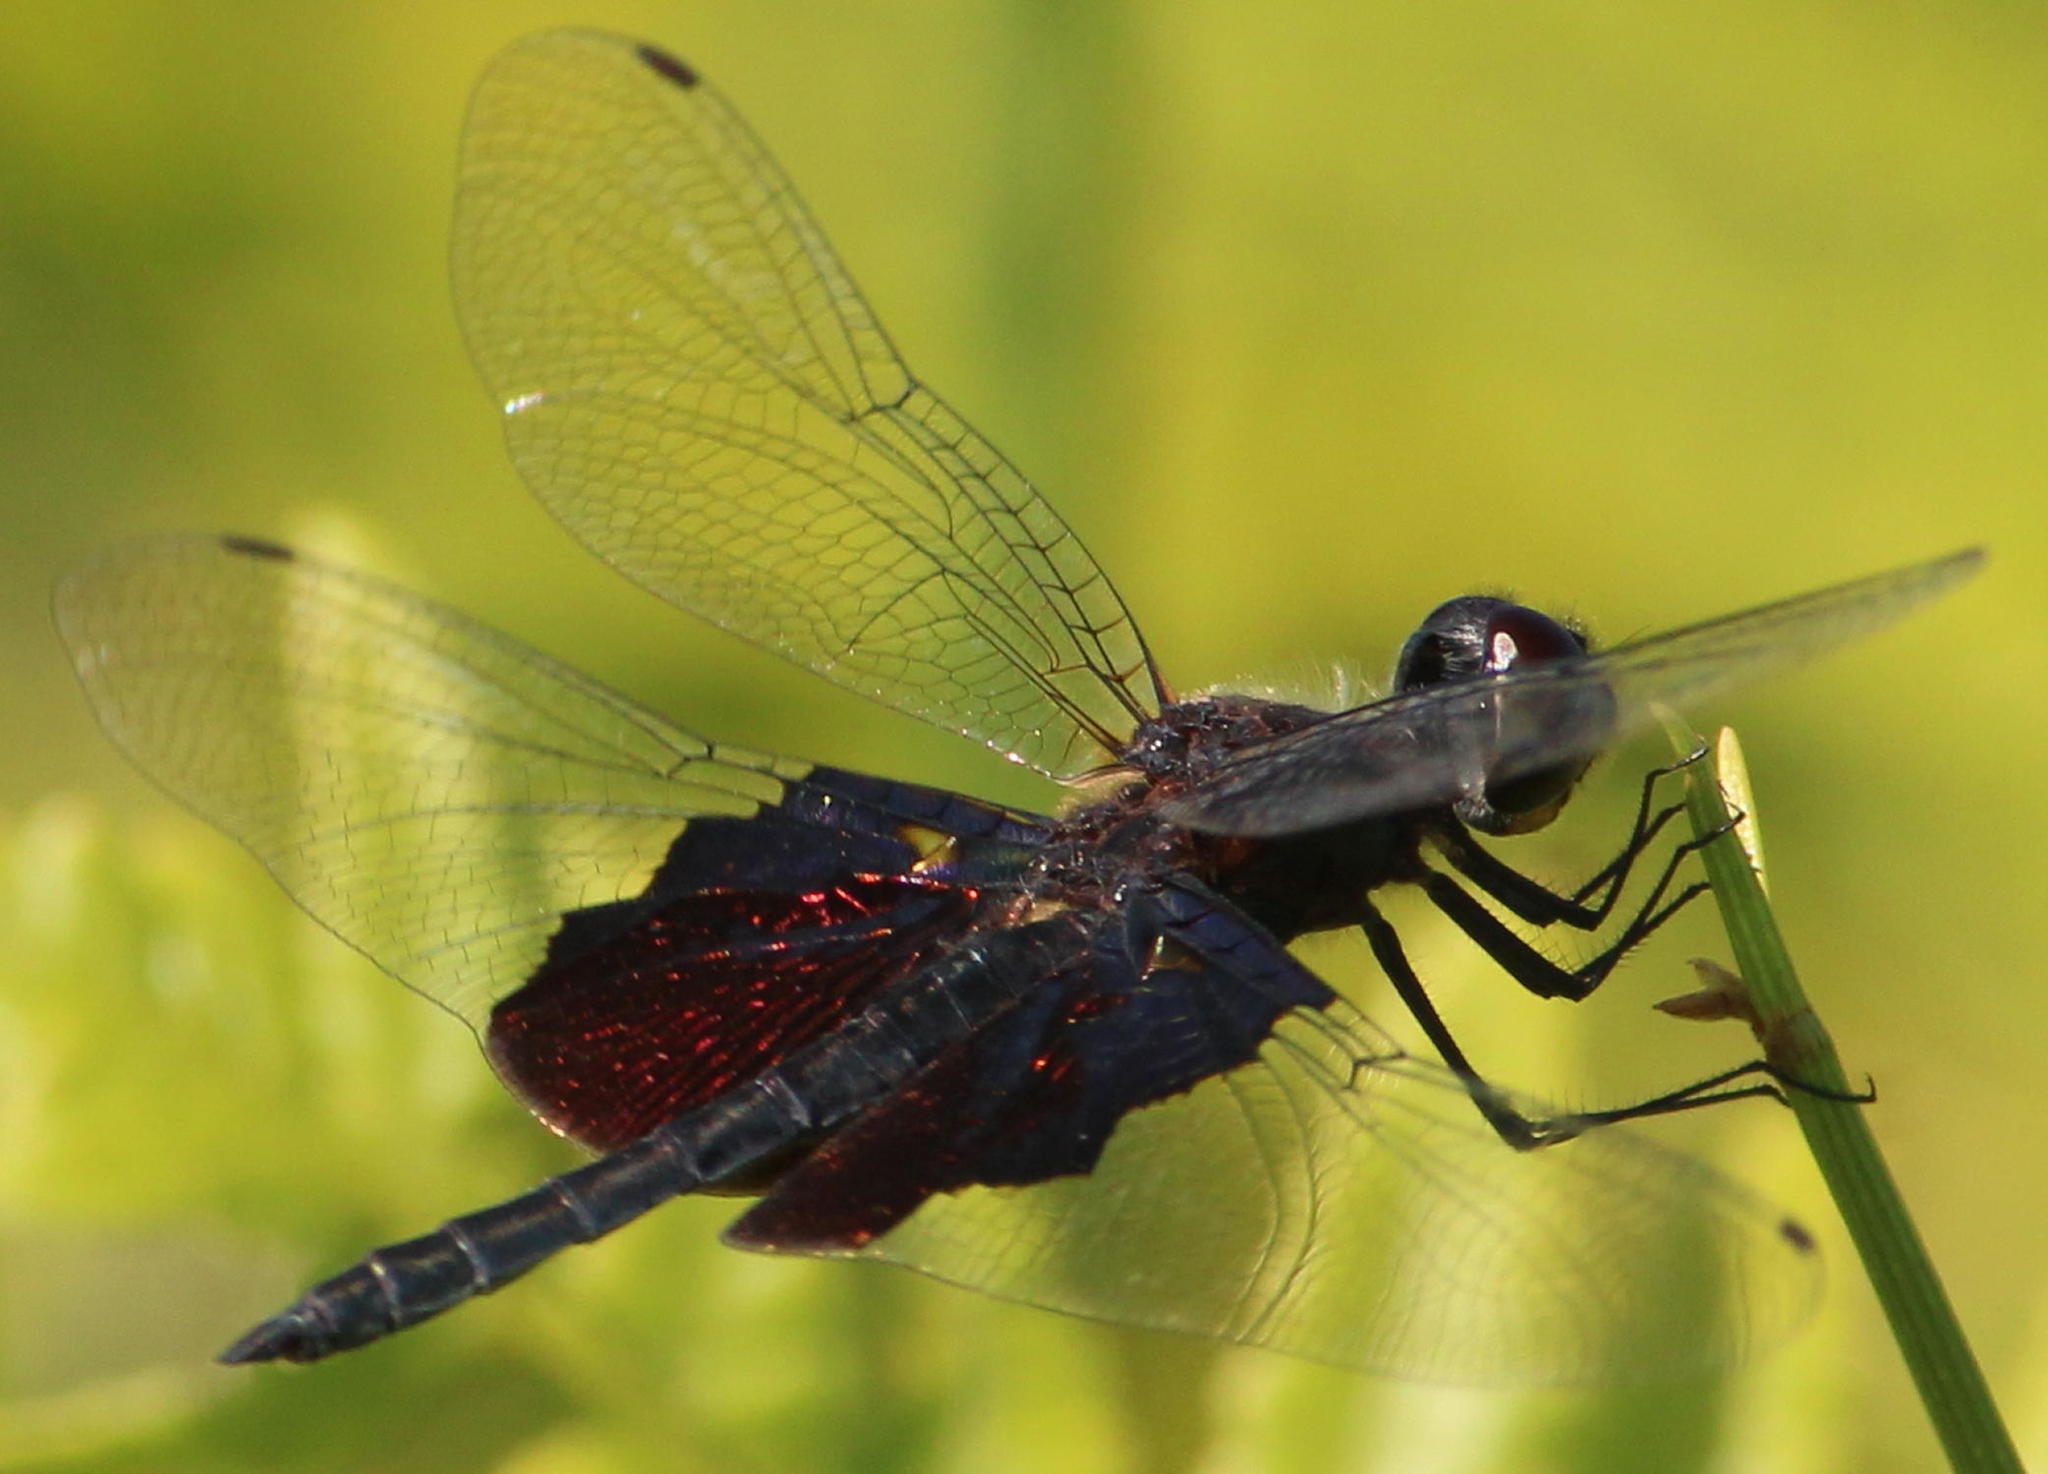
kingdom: Animalia
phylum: Arthropoda
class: Insecta
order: Odonata
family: Libellulidae
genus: Rhyothemis
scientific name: Rhyothemis semihyalina
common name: Phantom flutterer
